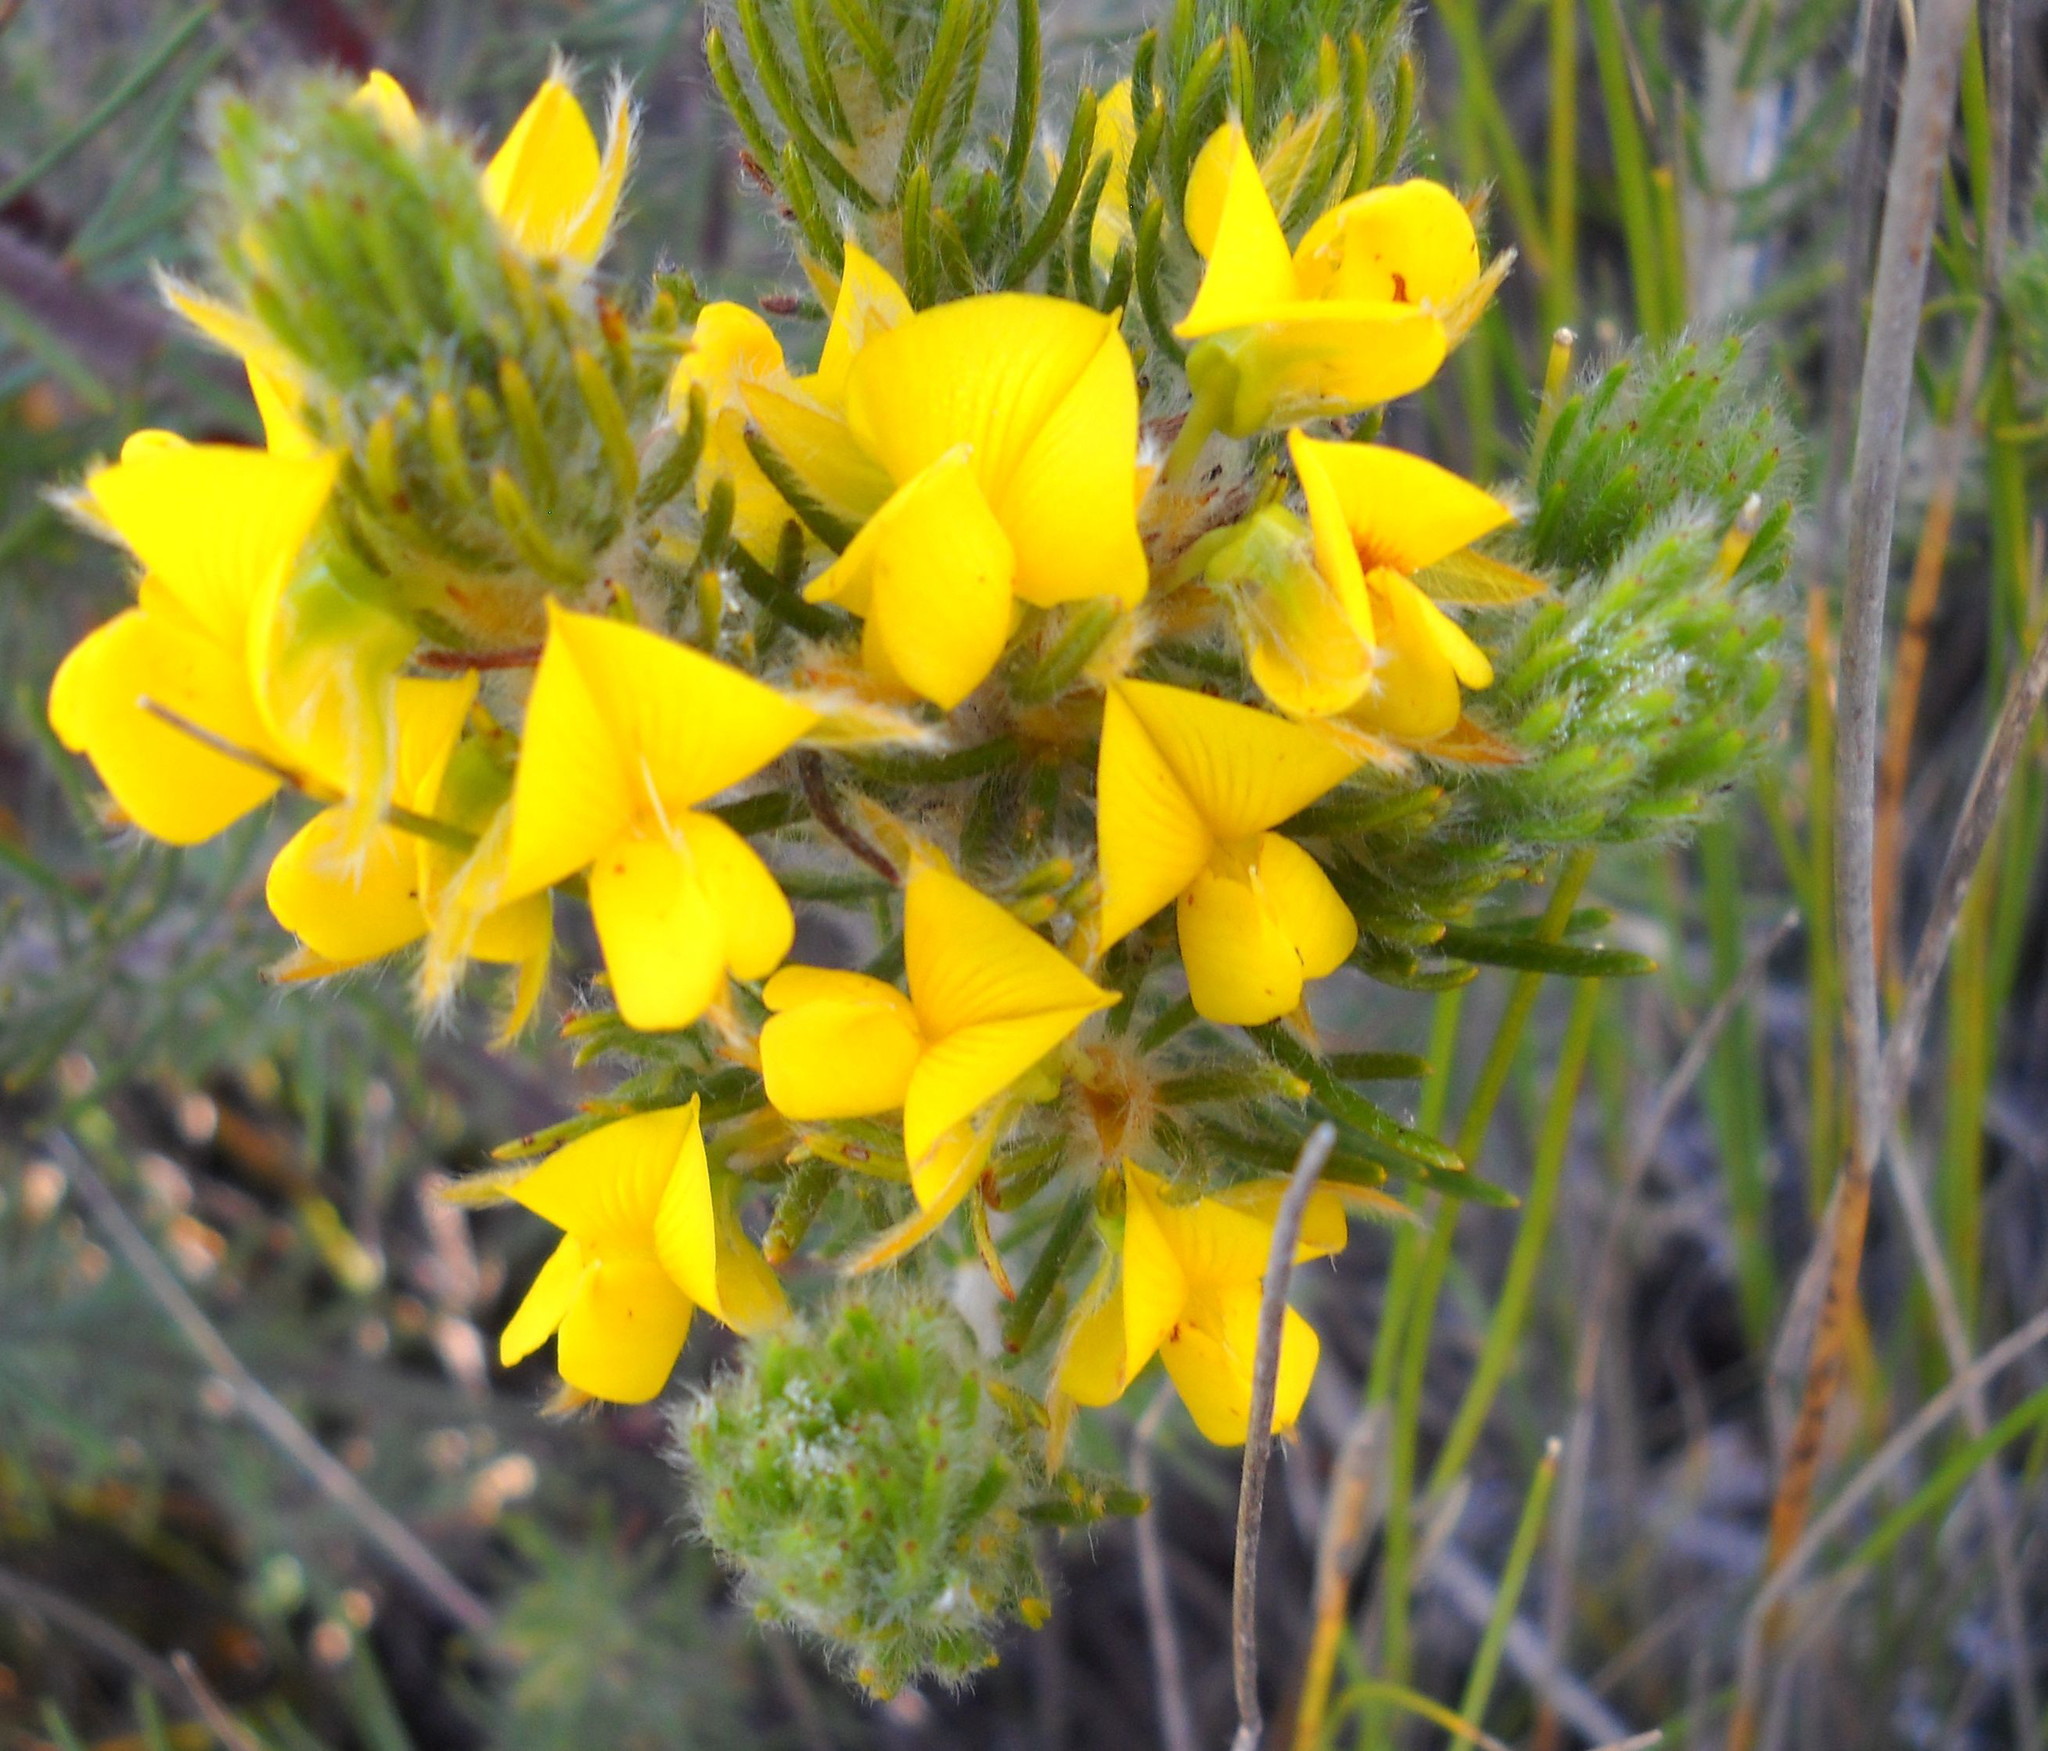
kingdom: Plantae
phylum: Tracheophyta
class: Magnoliopsida
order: Fabales
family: Fabaceae
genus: Cyclopia
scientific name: Cyclopia alopecuroides
